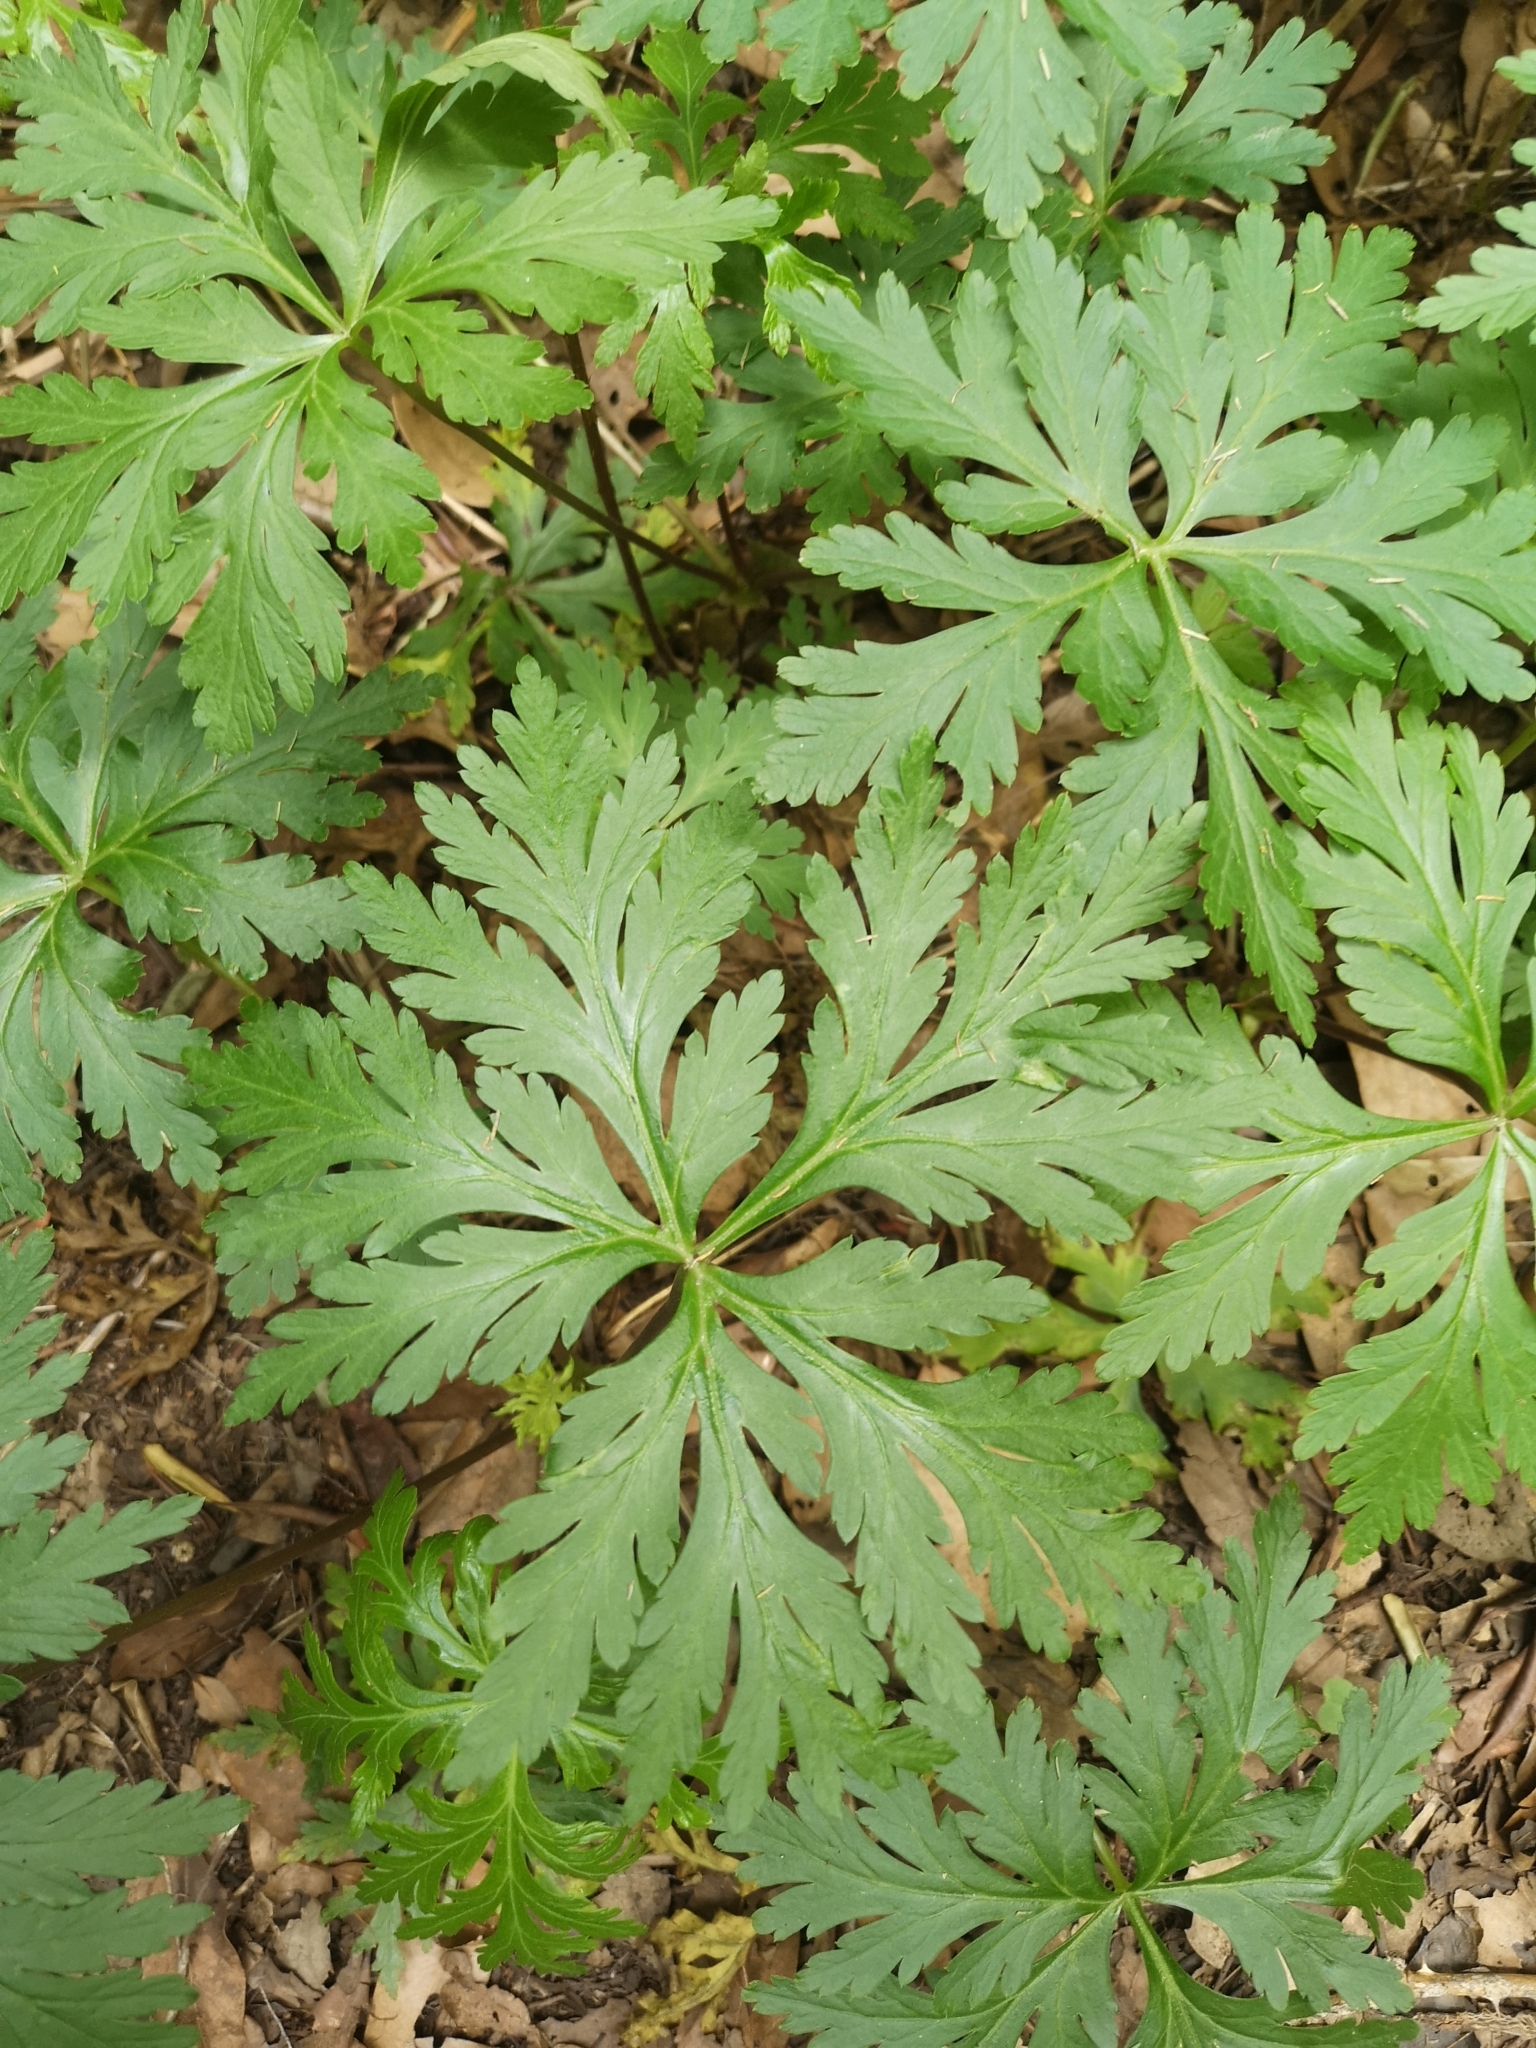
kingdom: Plantae
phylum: Tracheophyta
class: Magnoliopsida
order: Geraniales
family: Geraniaceae
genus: Geranium
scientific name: Geranium reuteri
